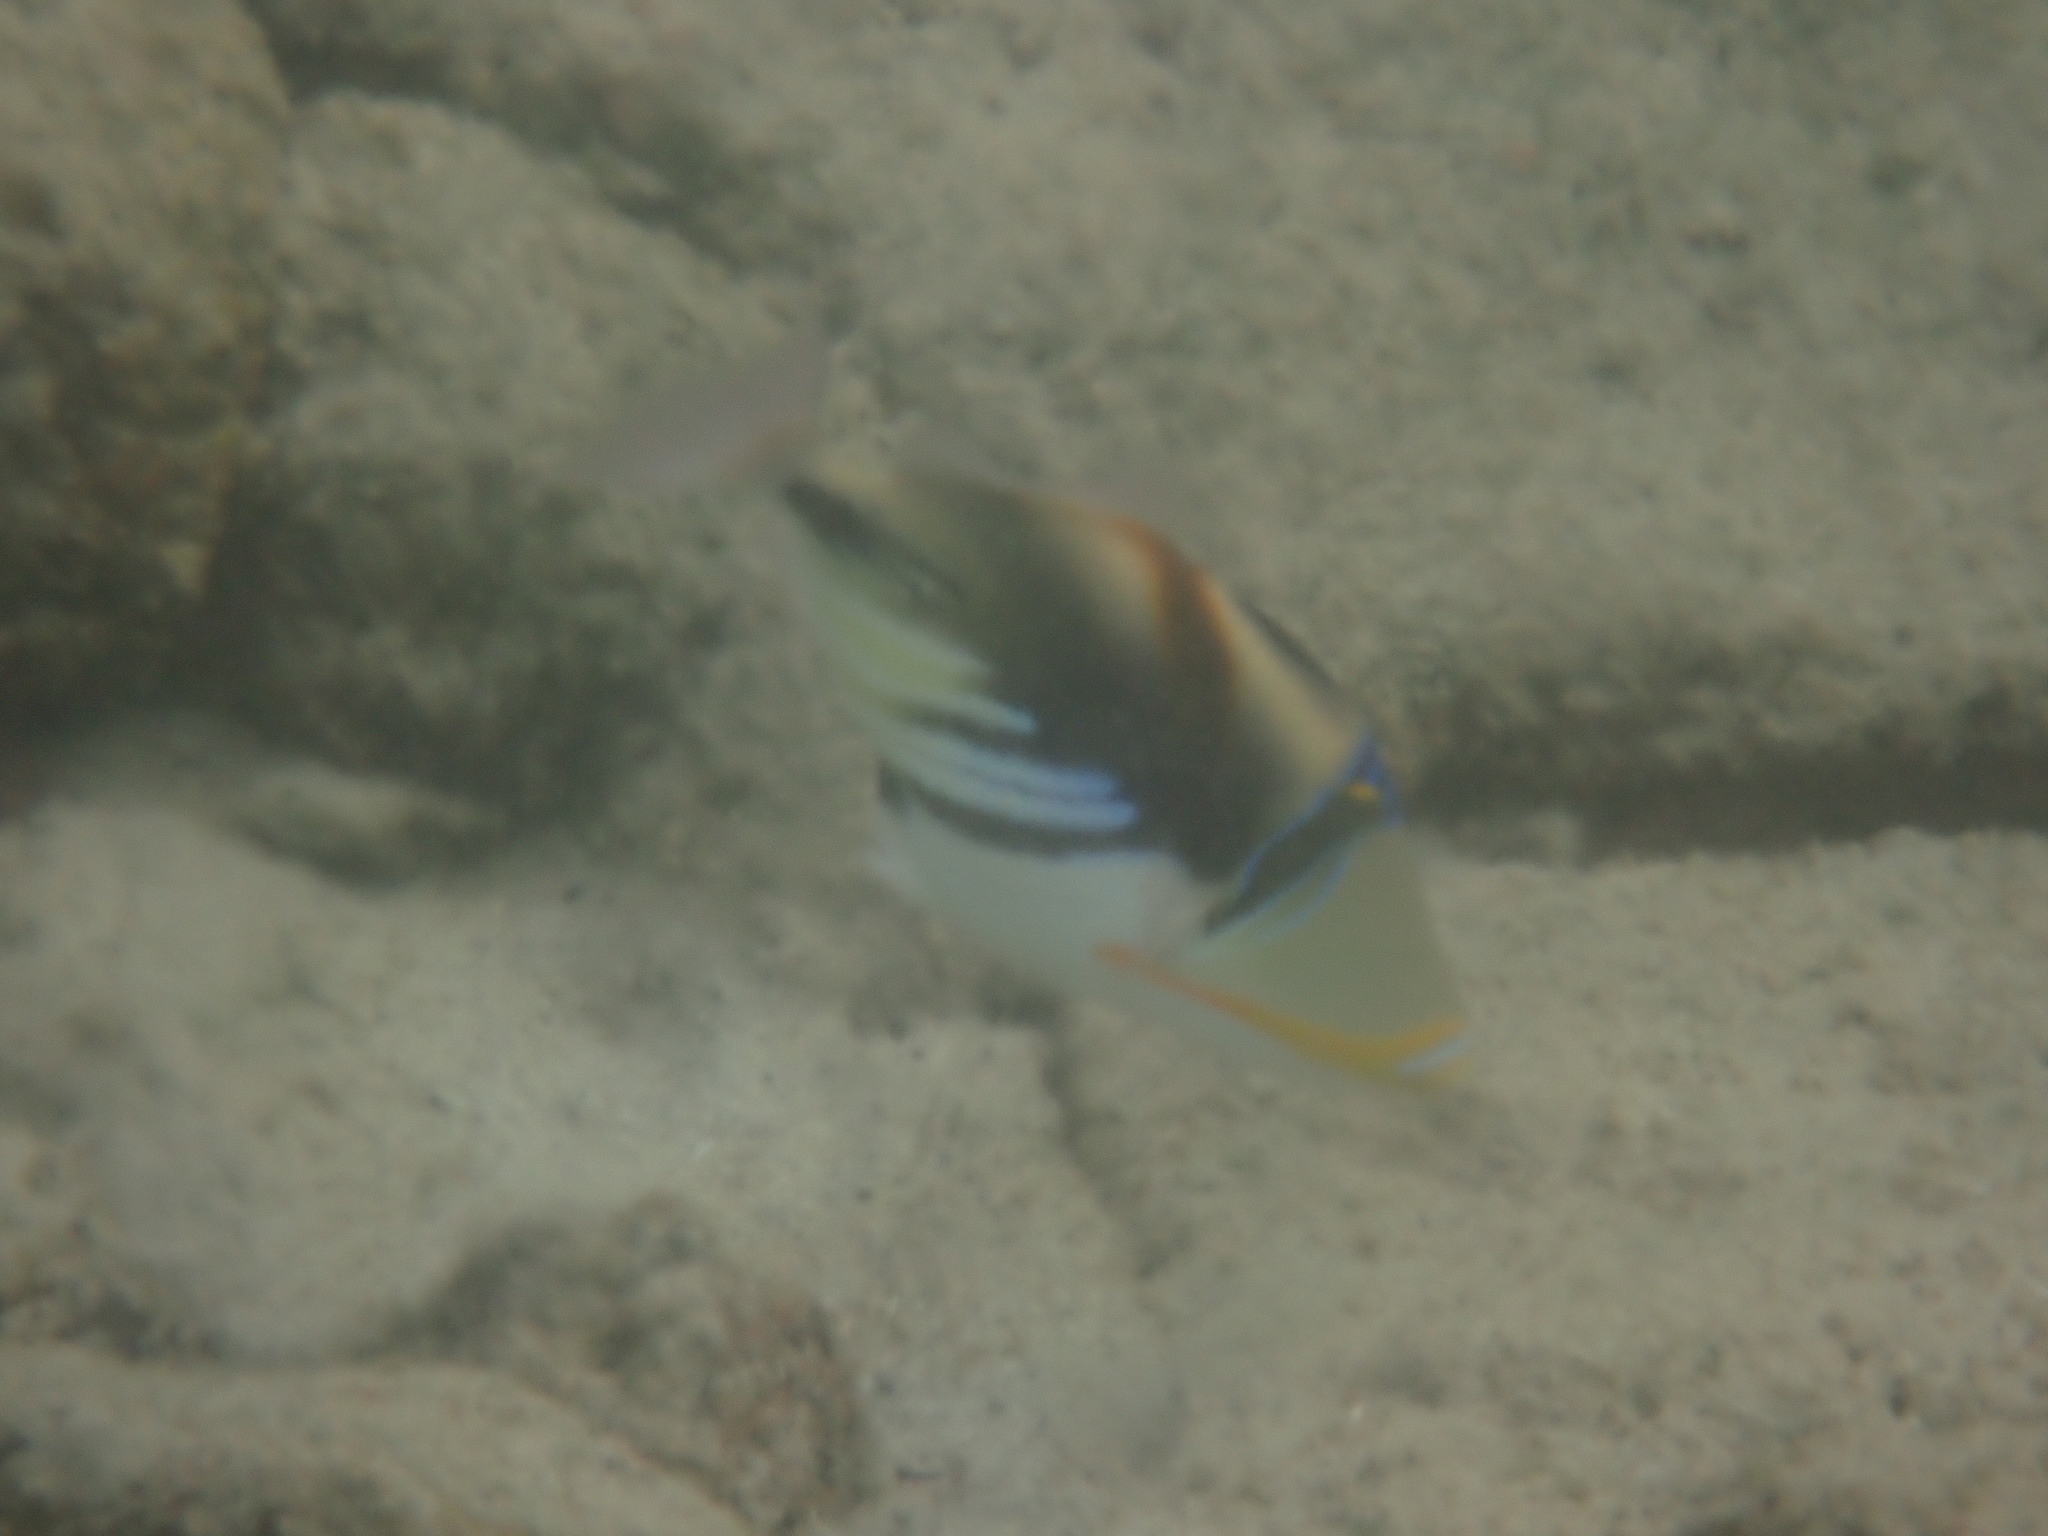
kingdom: Animalia
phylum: Chordata
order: Tetraodontiformes
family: Balistidae
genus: Rhinecanthus
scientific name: Rhinecanthus aculeatus
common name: White-banded triggerfish
